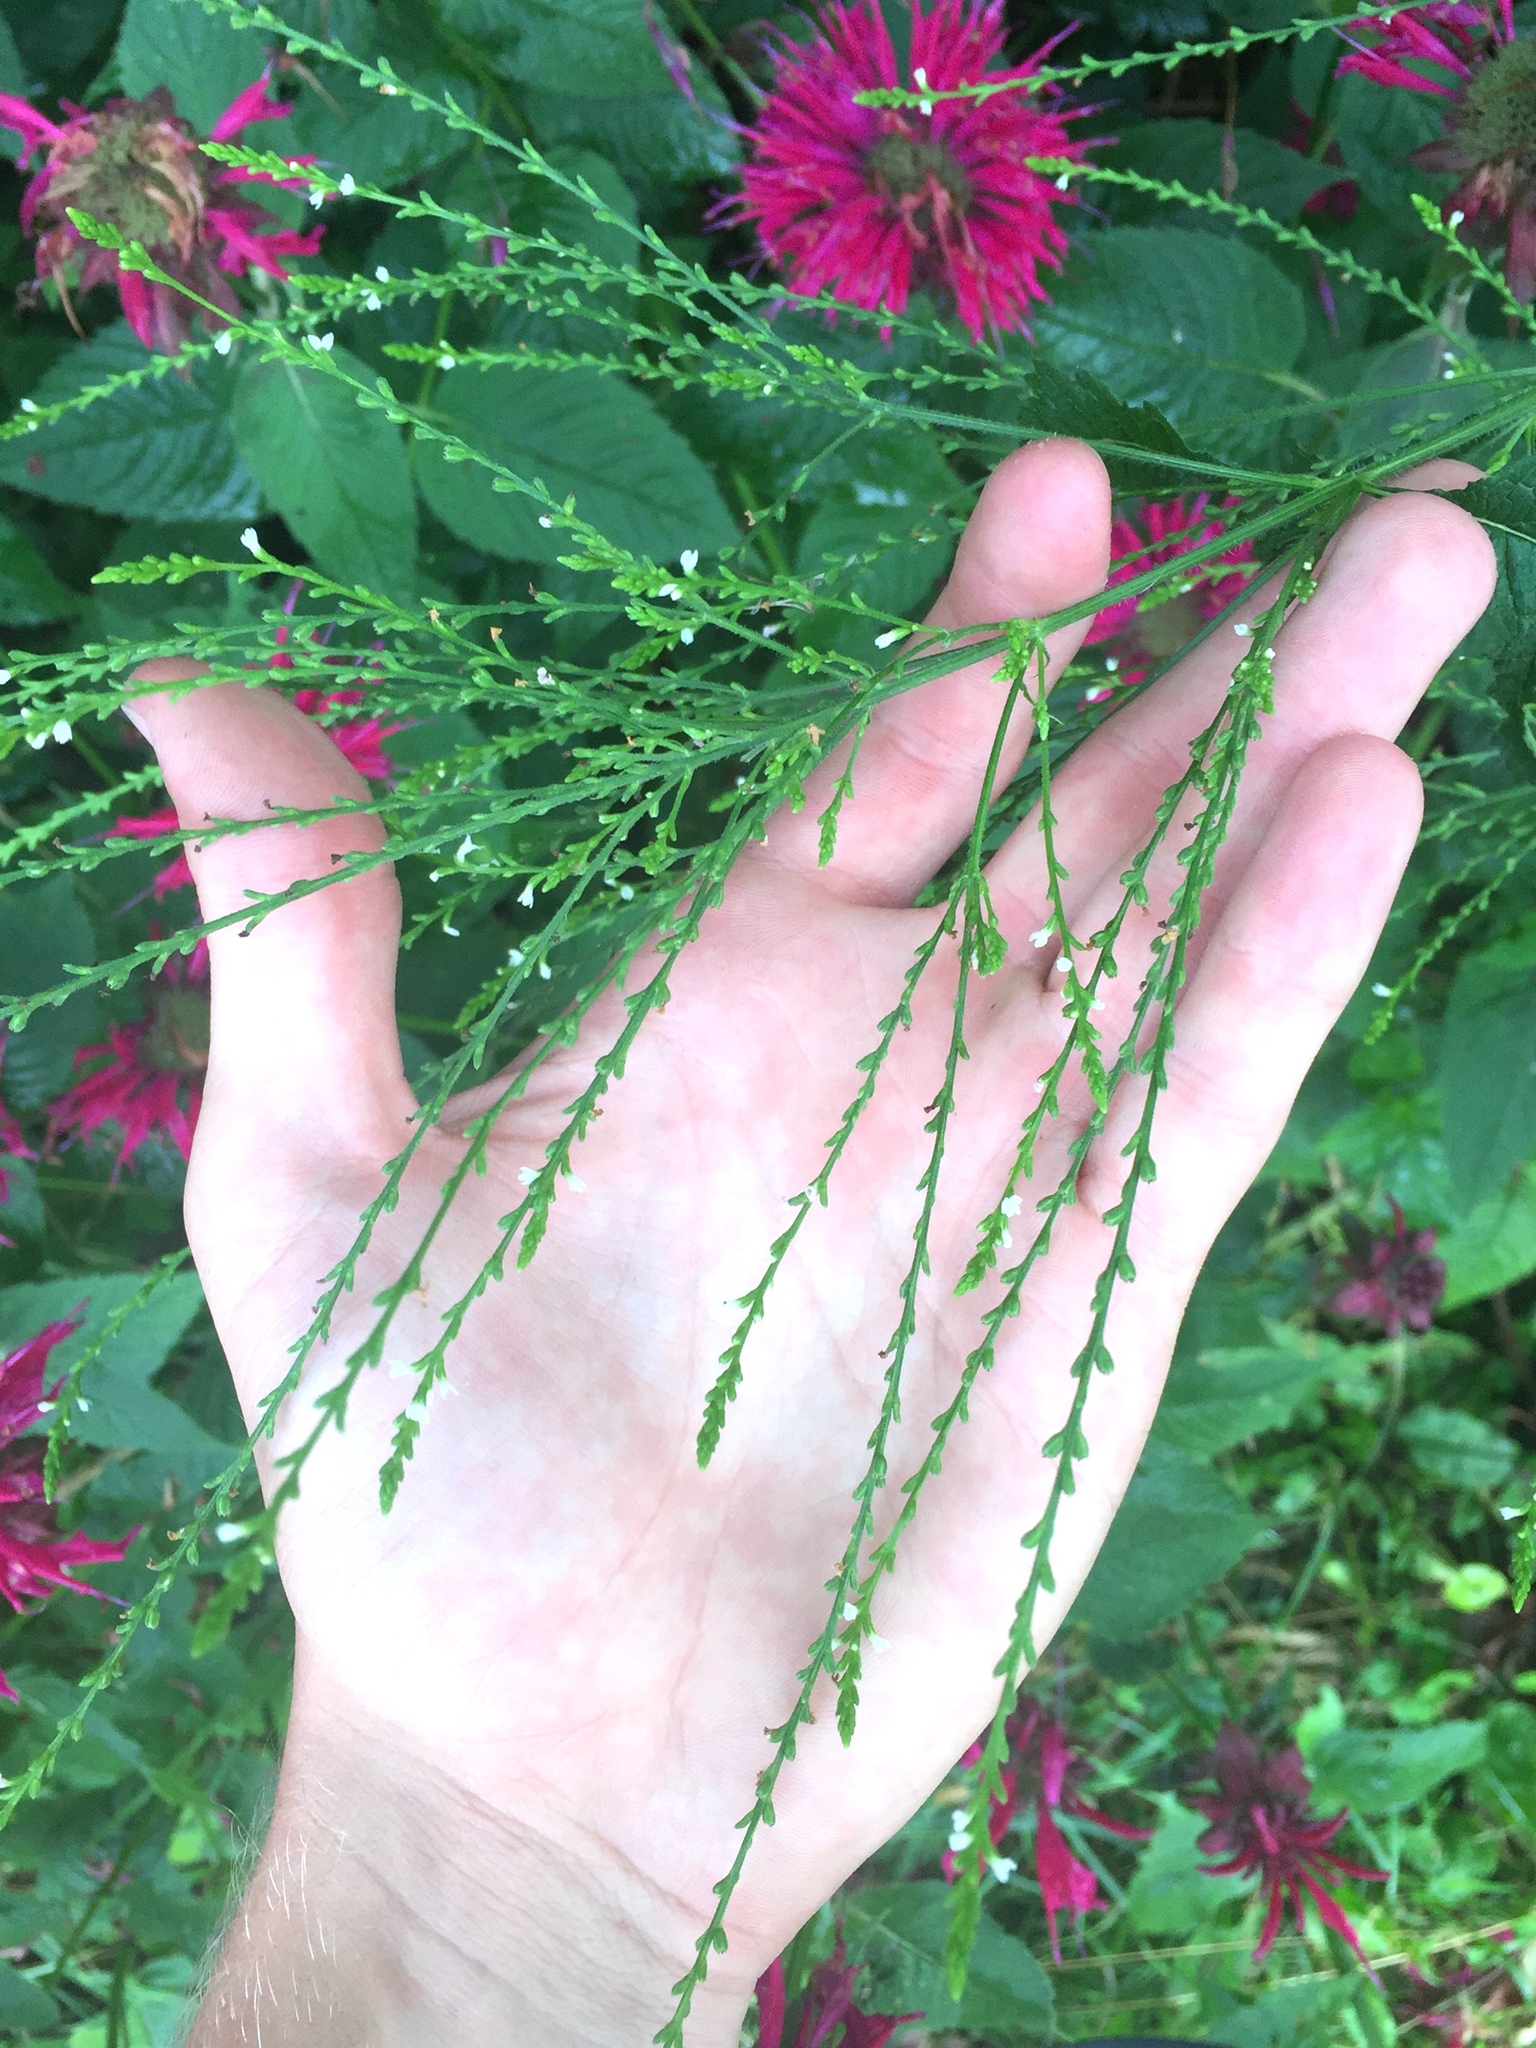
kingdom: Plantae
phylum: Tracheophyta
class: Magnoliopsida
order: Lamiales
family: Verbenaceae
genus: Verbena
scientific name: Verbena urticifolia
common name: Nettle-leaved vervain
